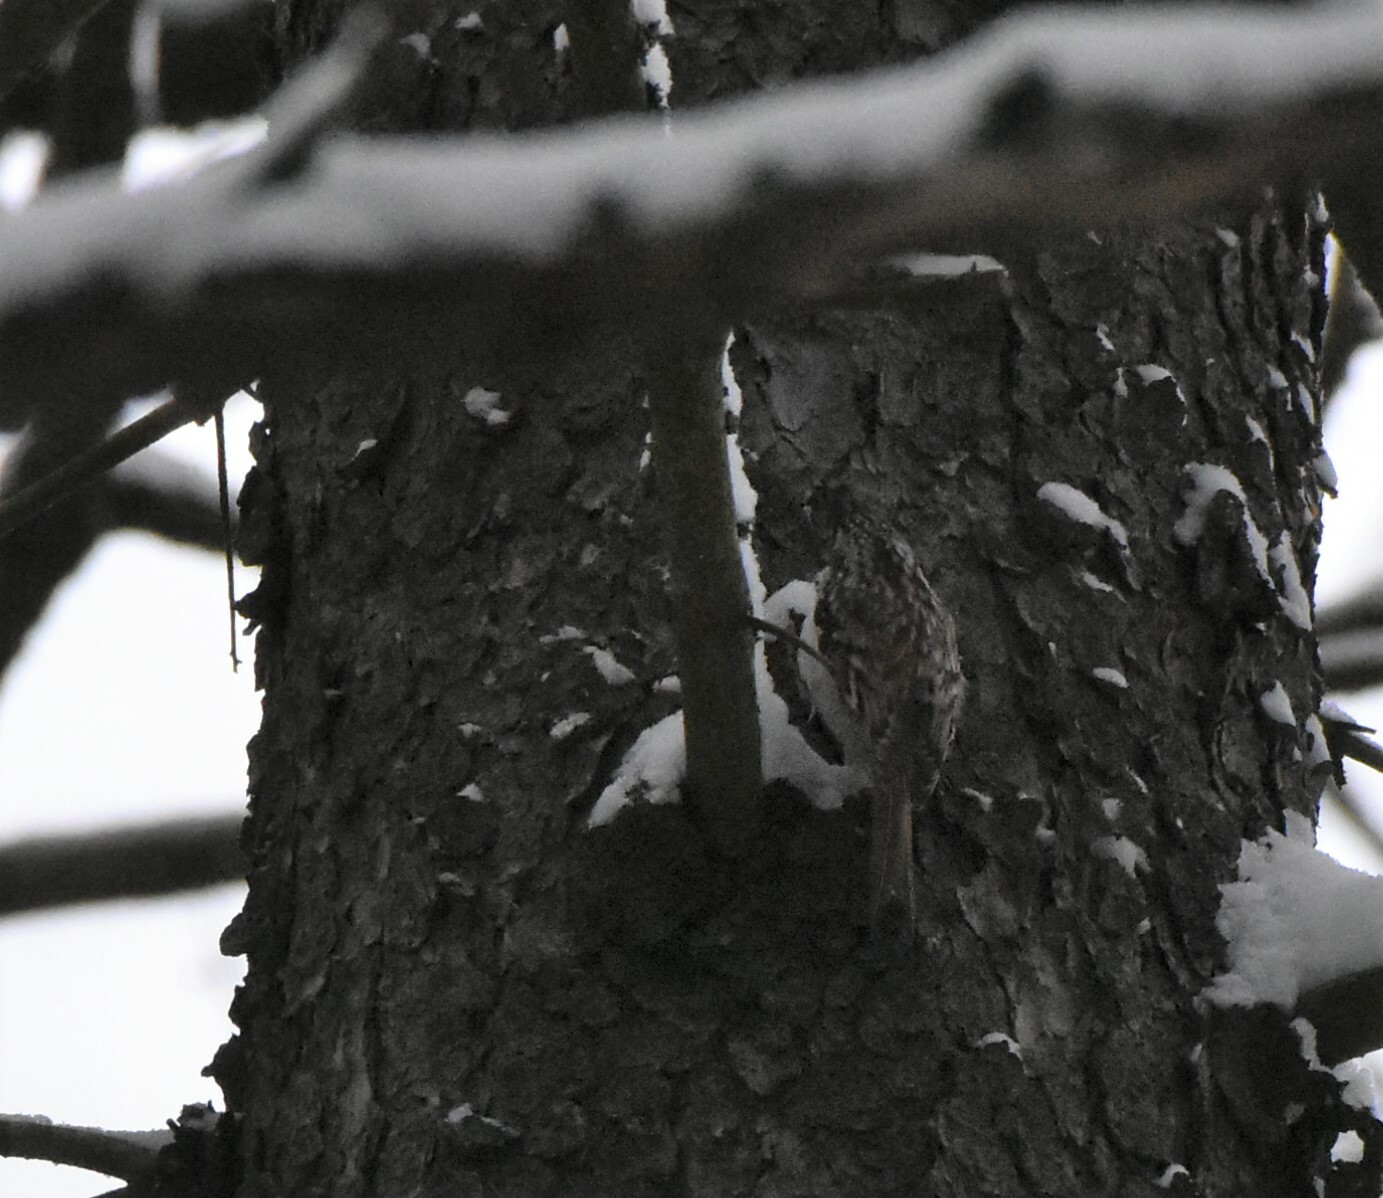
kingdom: Animalia
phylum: Chordata
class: Aves
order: Passeriformes
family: Certhiidae
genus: Certhia
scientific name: Certhia familiaris
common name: Eurasian treecreeper
